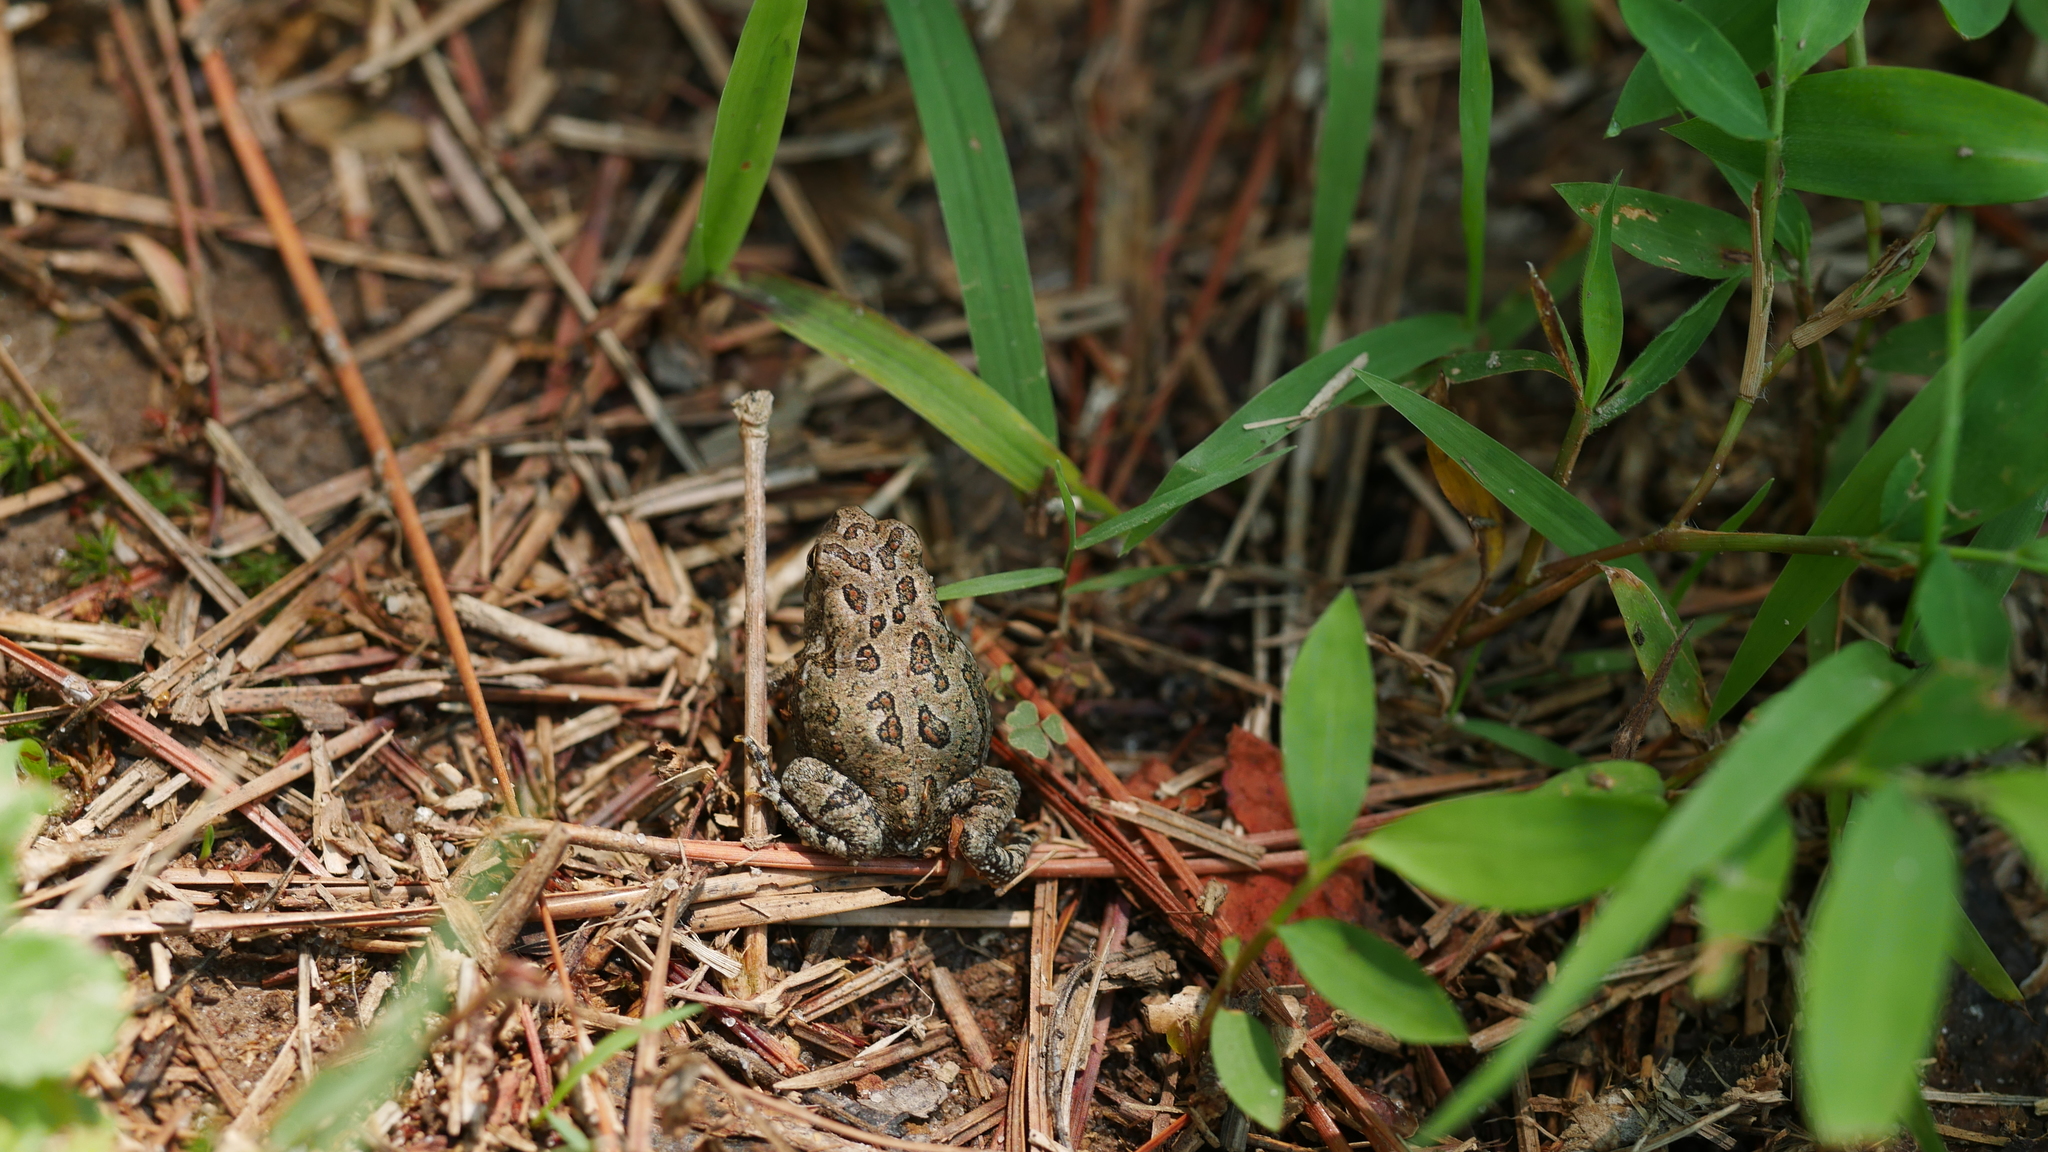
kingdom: Animalia
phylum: Chordata
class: Amphibia
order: Anura
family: Bufonidae
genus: Anaxyrus
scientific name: Anaxyrus fowleri
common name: Fowler's toad
